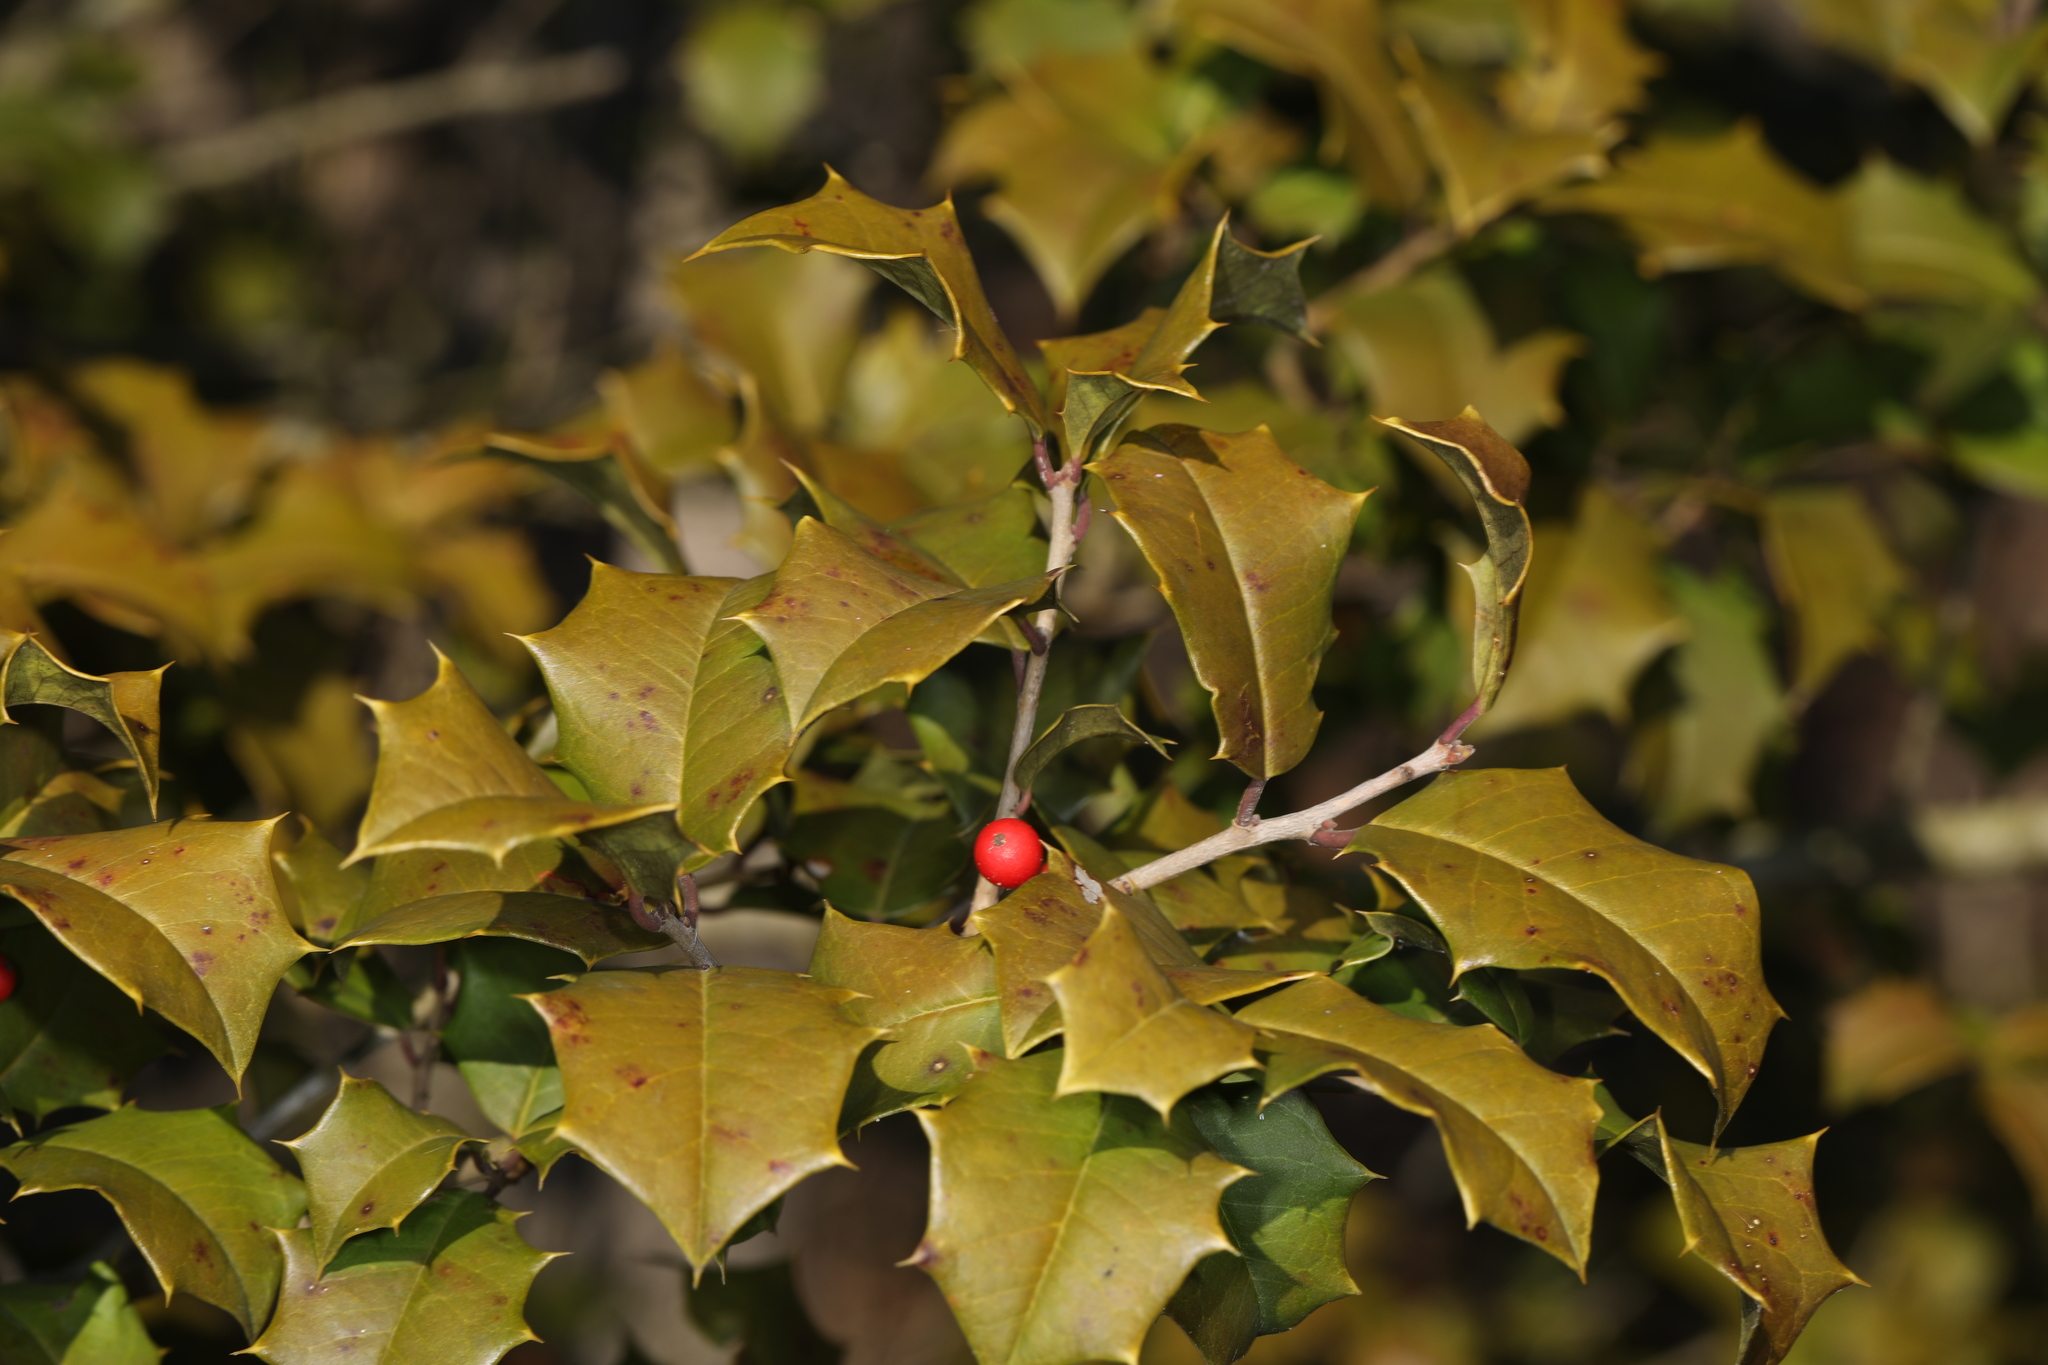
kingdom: Plantae
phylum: Tracheophyta
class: Magnoliopsida
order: Aquifoliales
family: Aquifoliaceae
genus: Ilex
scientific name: Ilex opaca
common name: American holly
